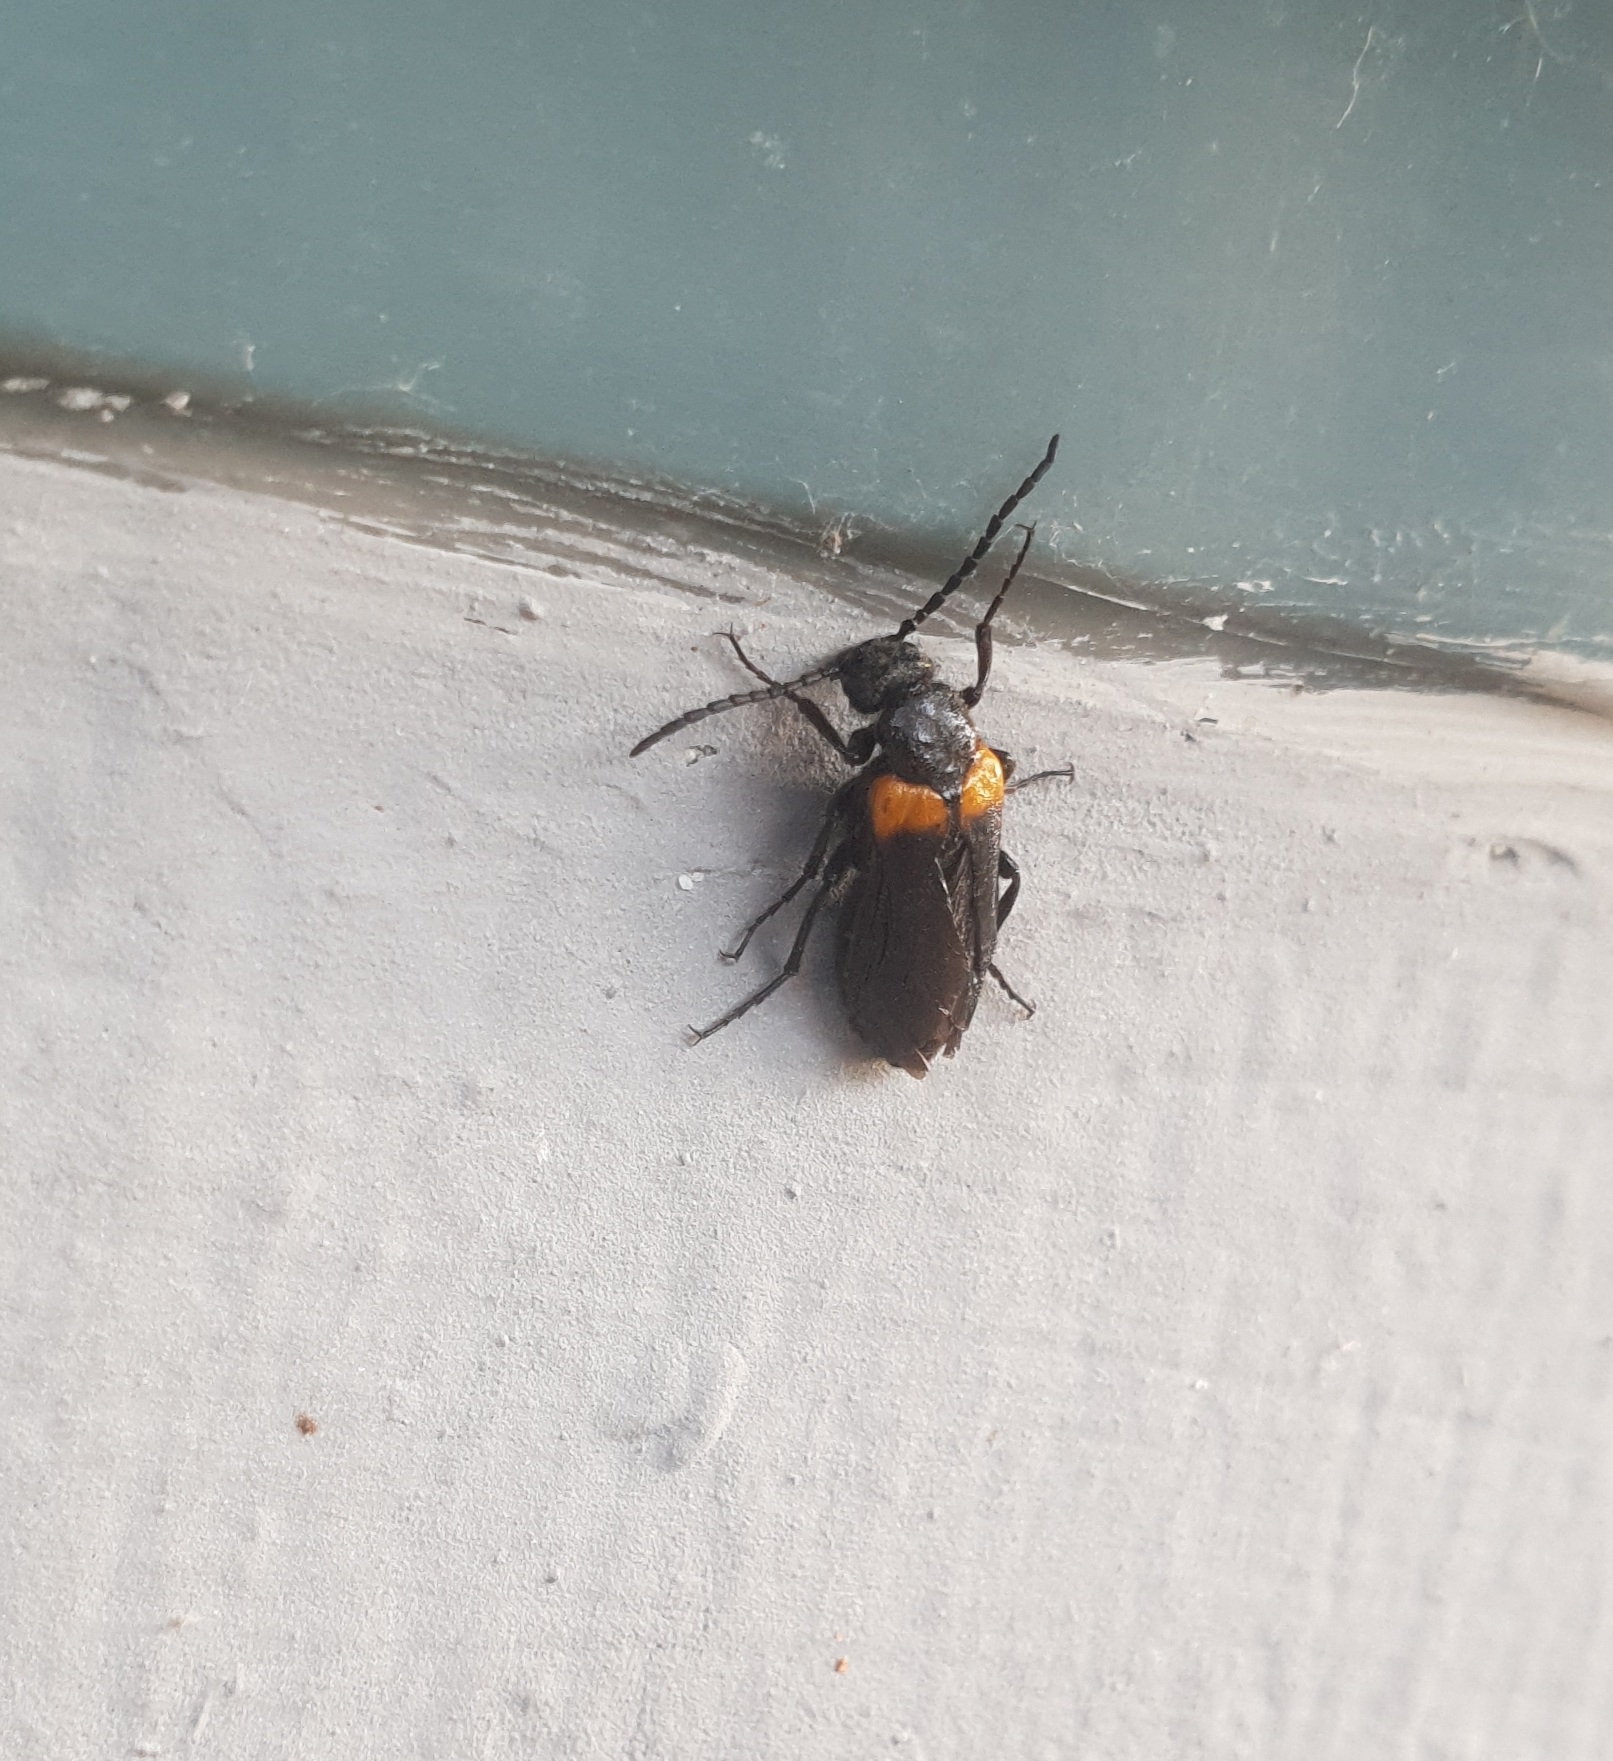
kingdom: Animalia
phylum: Arthropoda
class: Insecta
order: Coleoptera
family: Meloidae
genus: Sitaris
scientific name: Sitaris muralis
